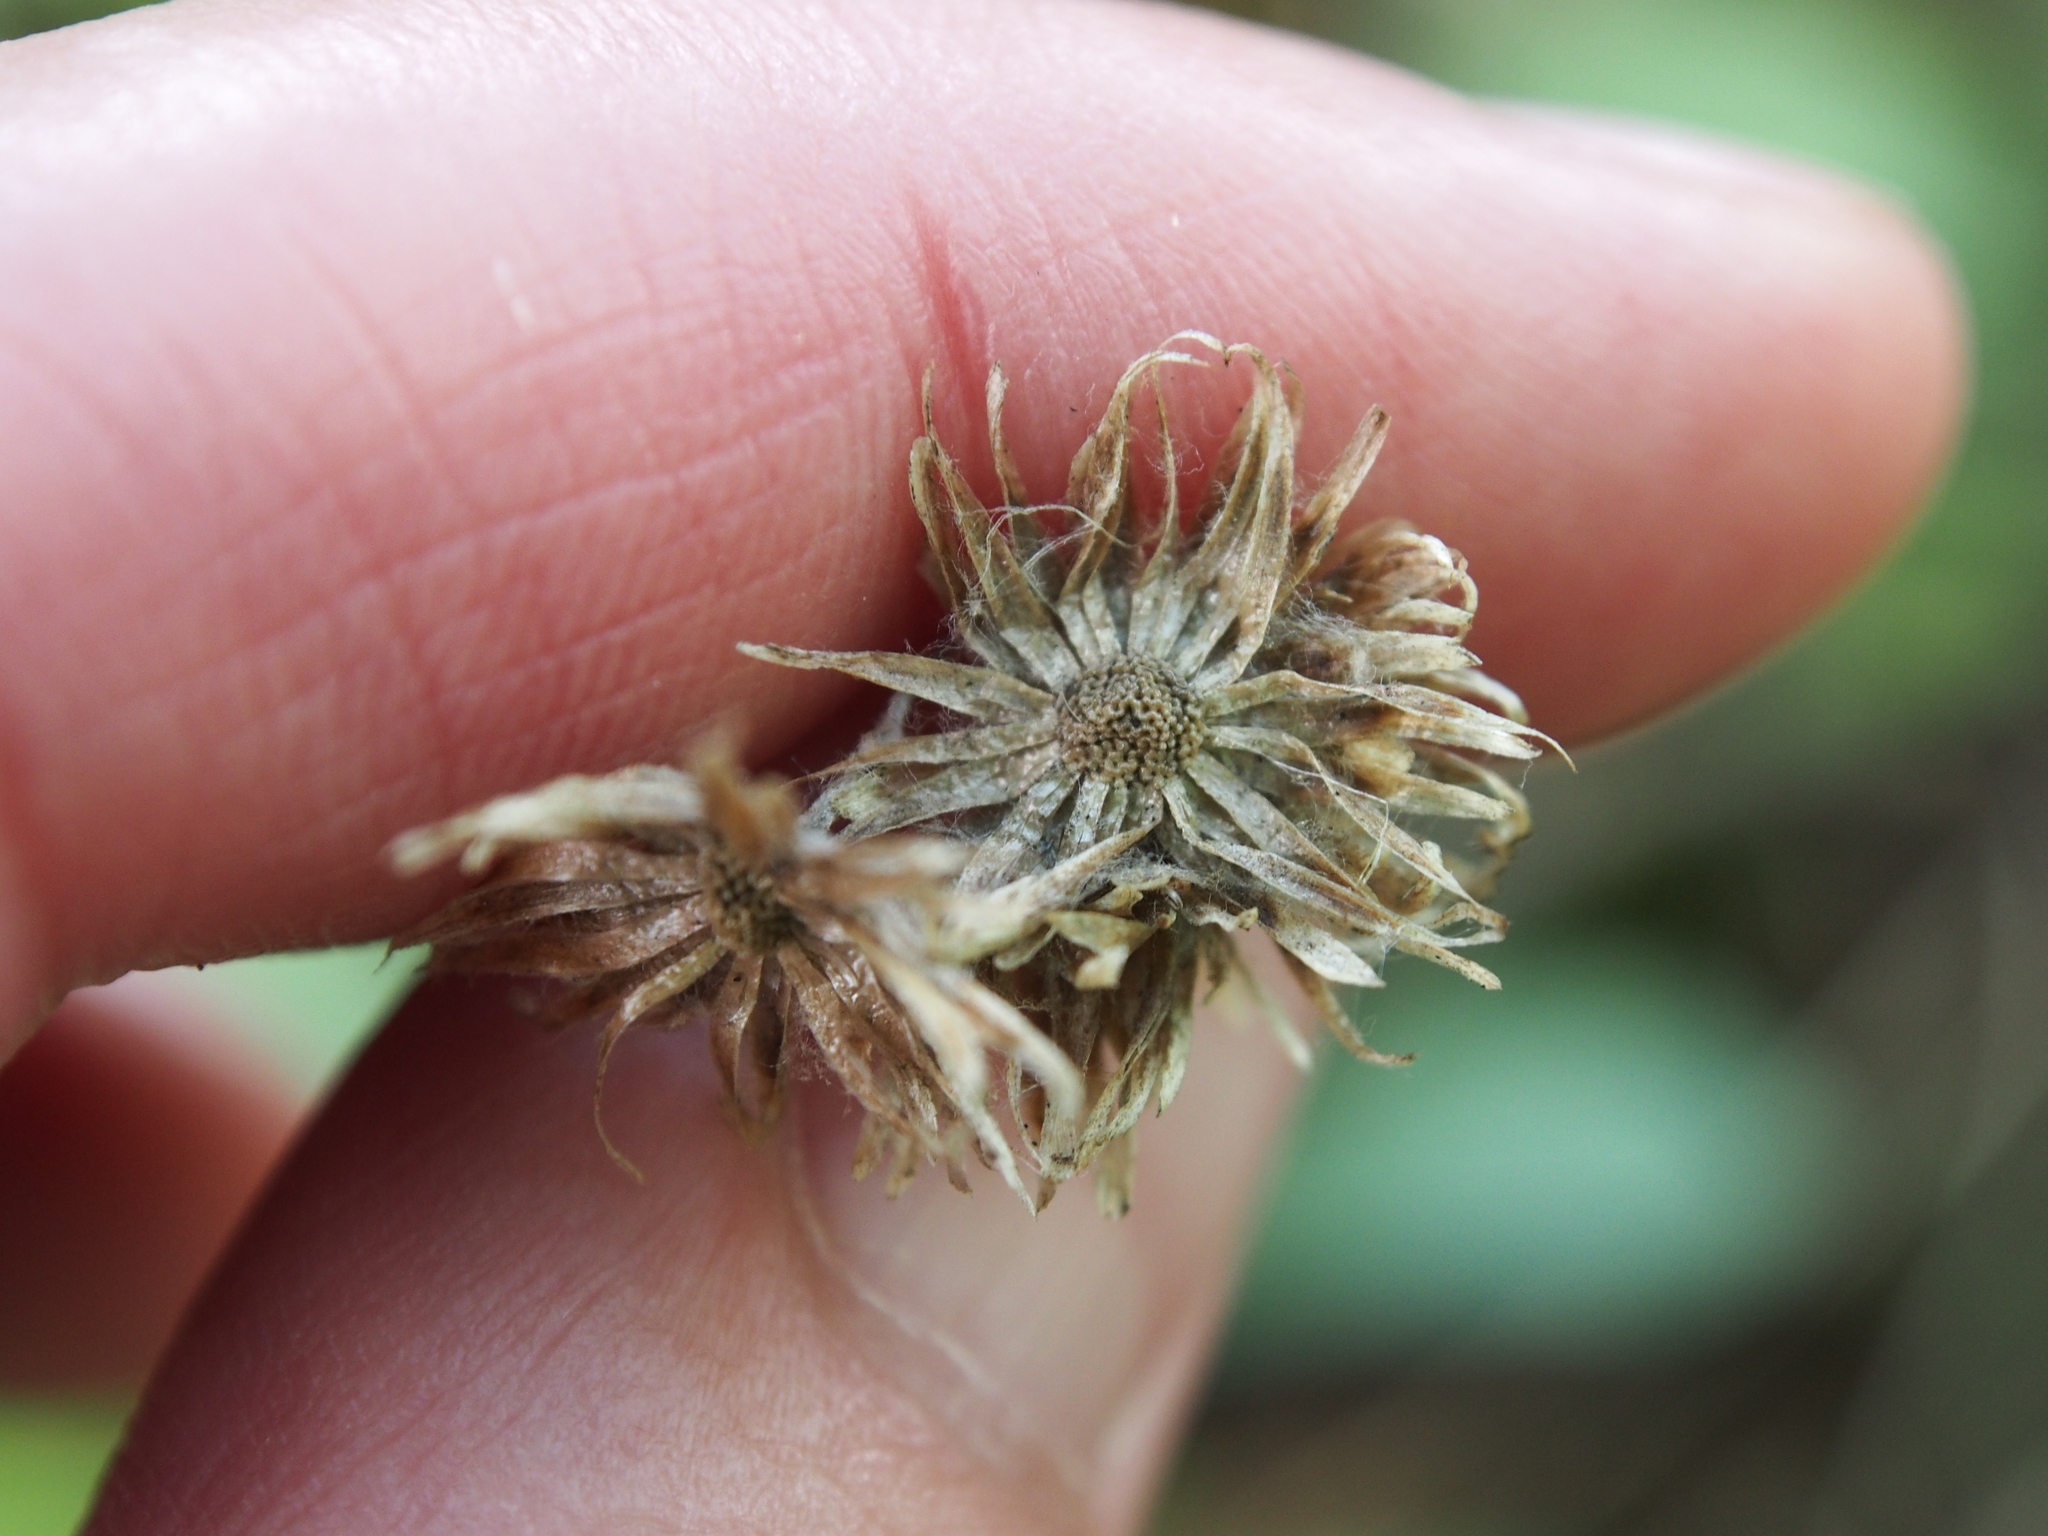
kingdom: Plantae
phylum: Tracheophyta
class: Magnoliopsida
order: Asterales
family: Asteraceae
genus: Antennaria
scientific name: Antennaria plantaginifolia
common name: Plantain-leaved pussytoes
